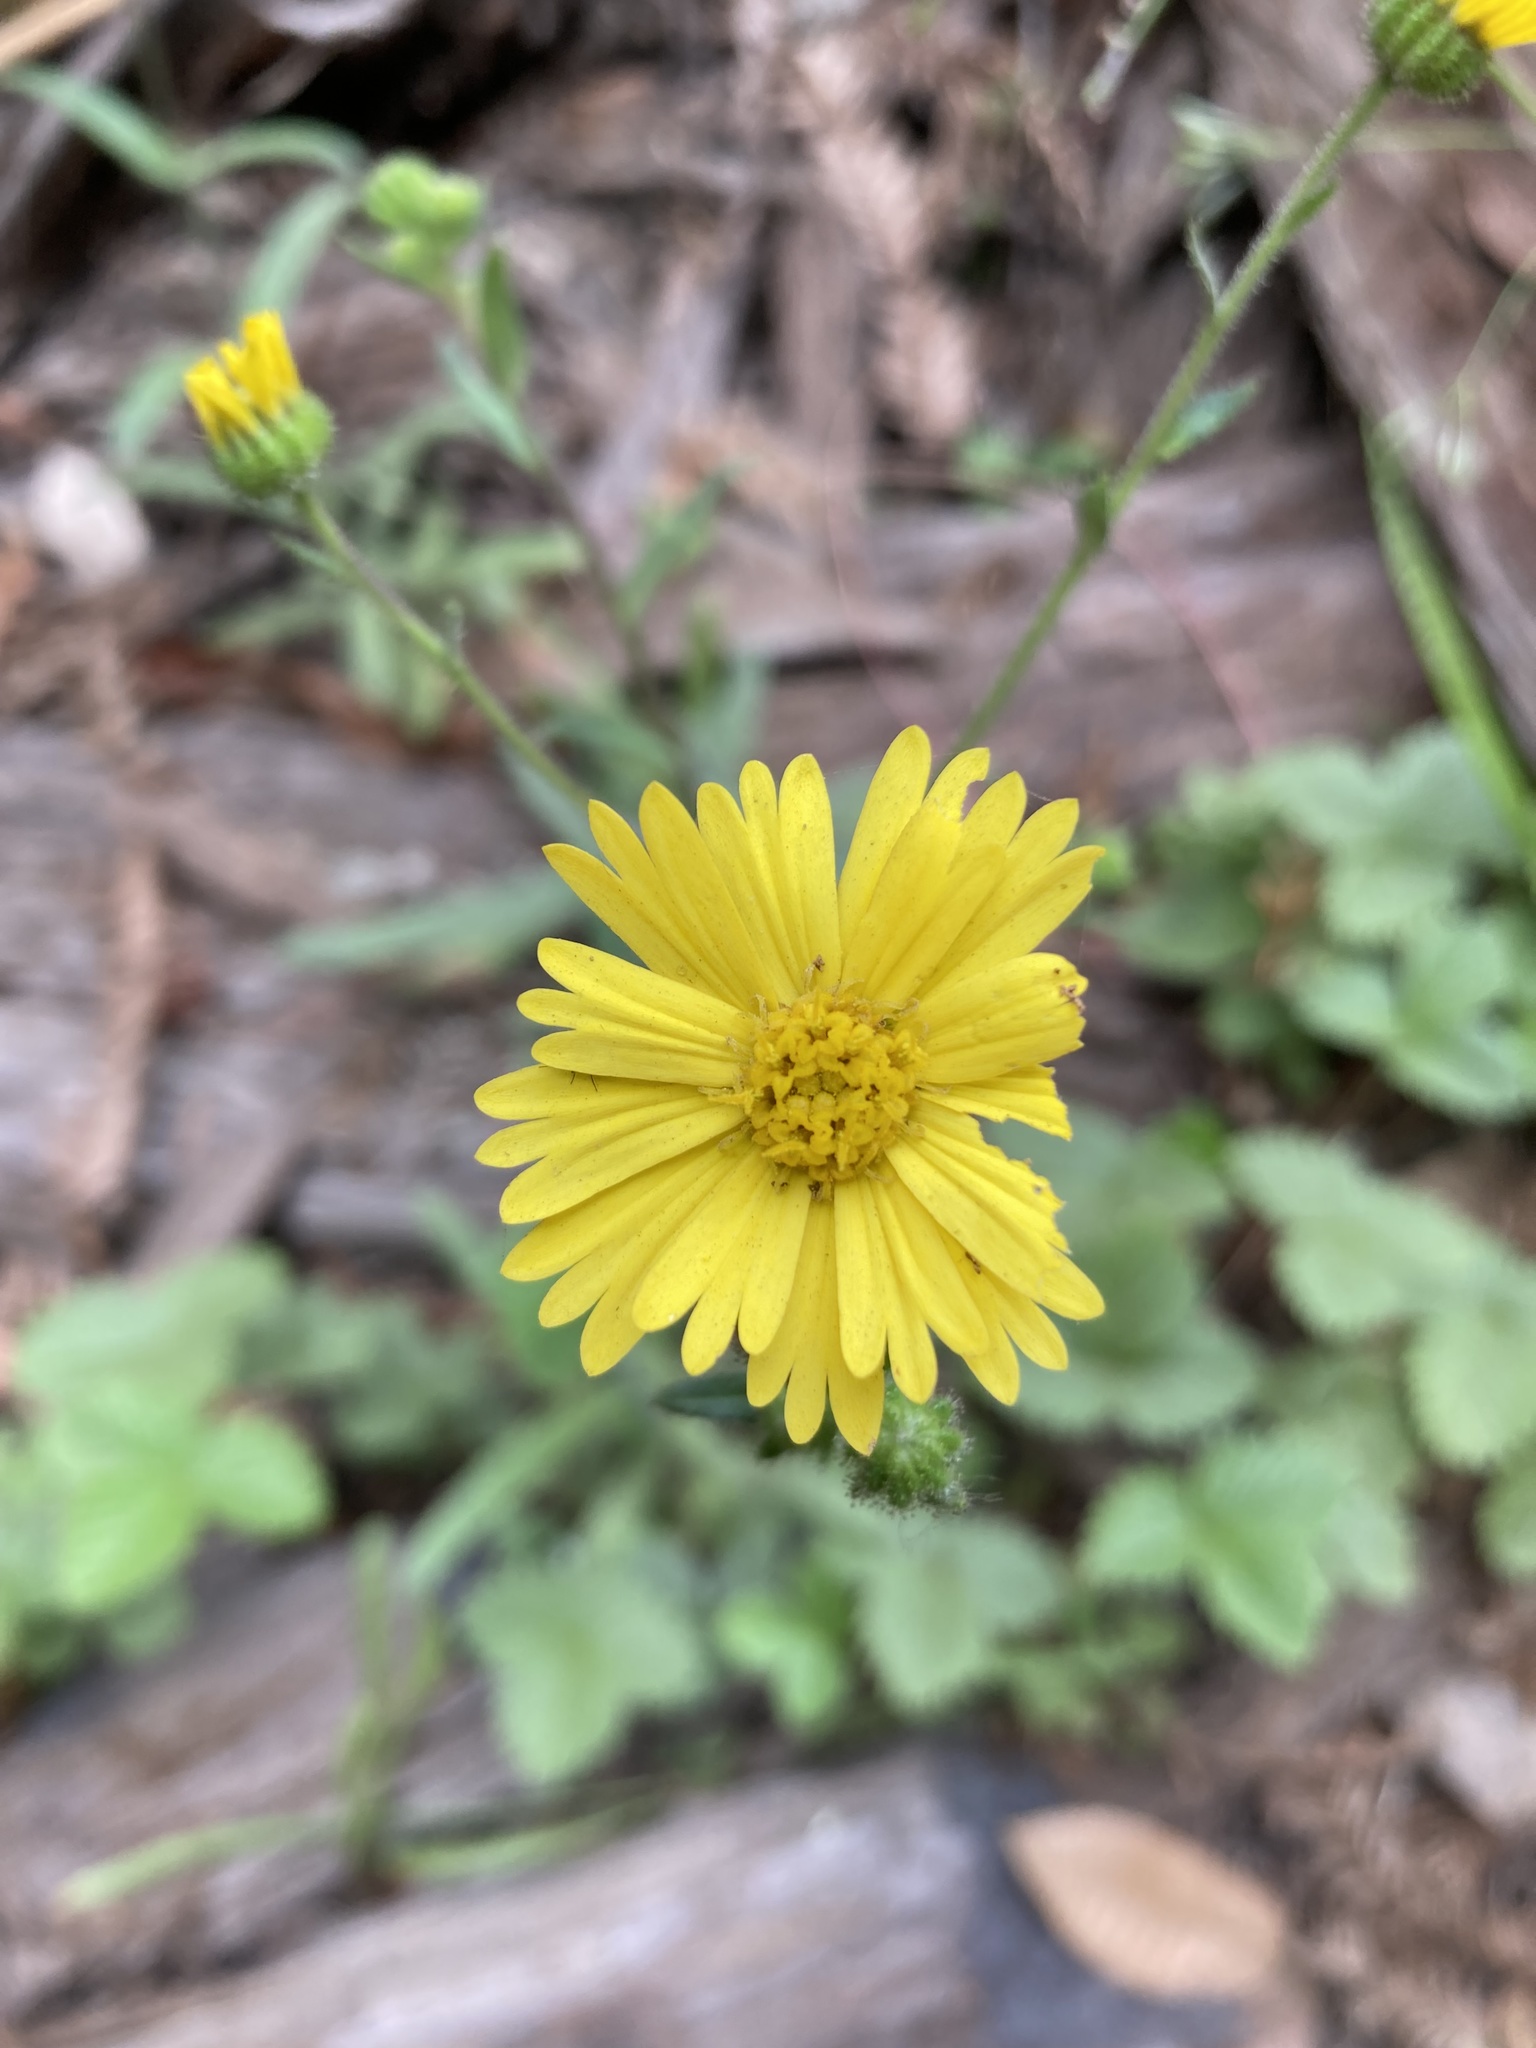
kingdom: Plantae
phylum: Tracheophyta
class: Magnoliopsida
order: Asterales
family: Asteraceae
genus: Anisocarpus
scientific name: Anisocarpus madioides
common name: Woodland madia
